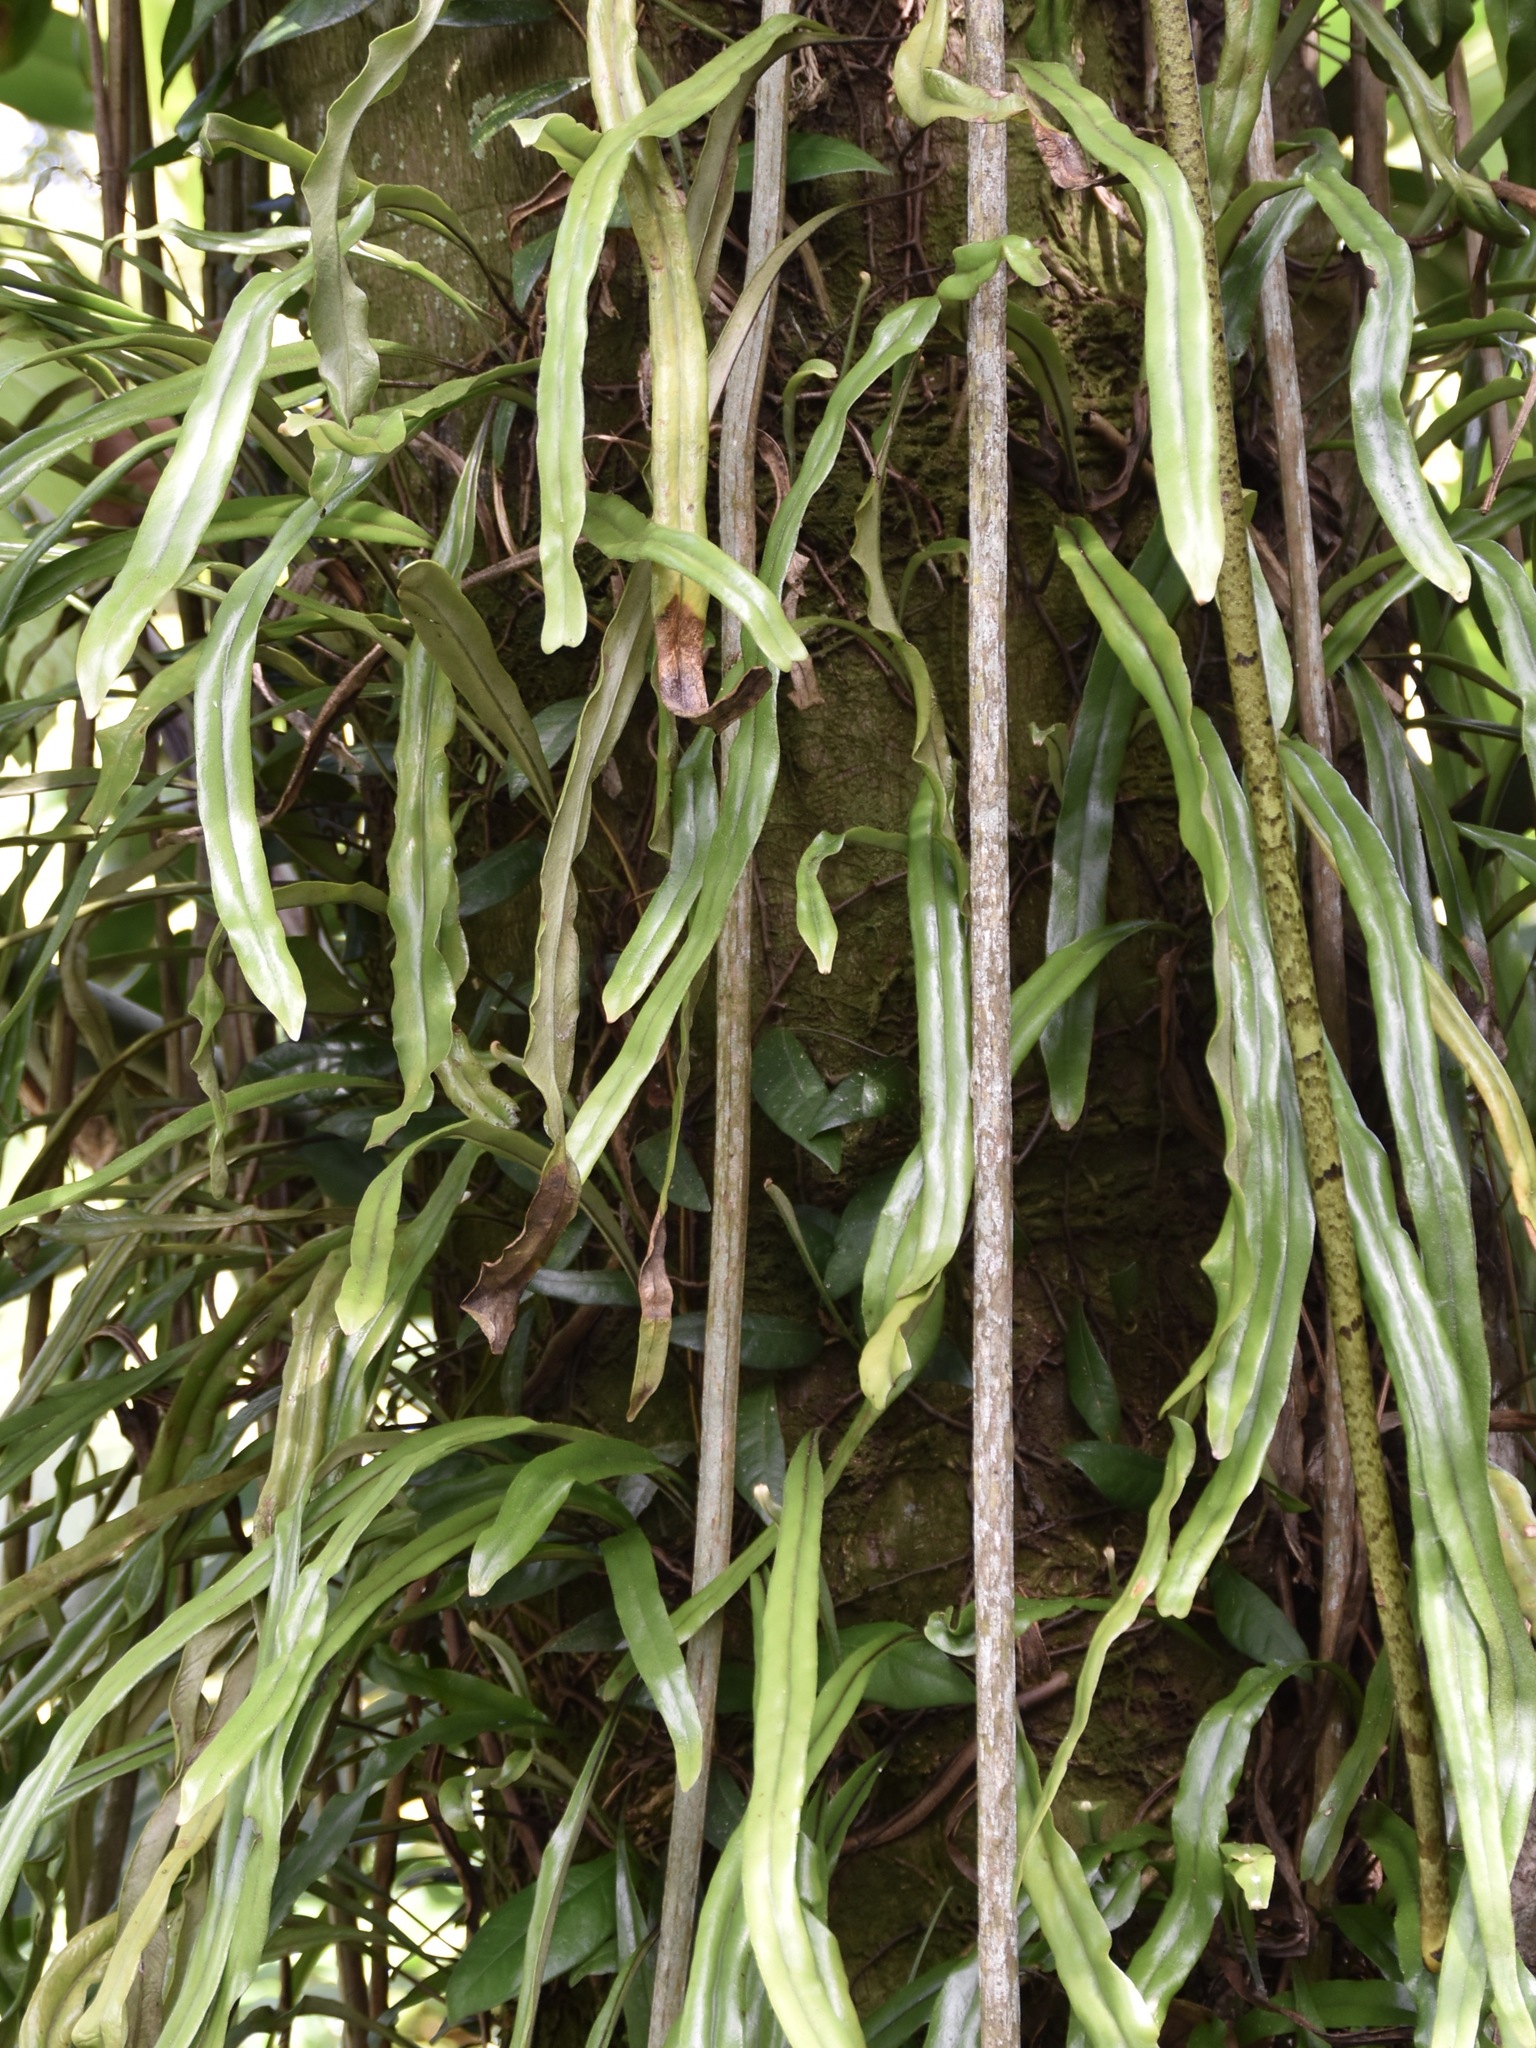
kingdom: Plantae
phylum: Tracheophyta
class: Polypodiopsida
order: Polypodiales
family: Polypodiaceae
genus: Pyrrosia
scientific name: Pyrrosia longifolia
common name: Long-leaved felt fern
